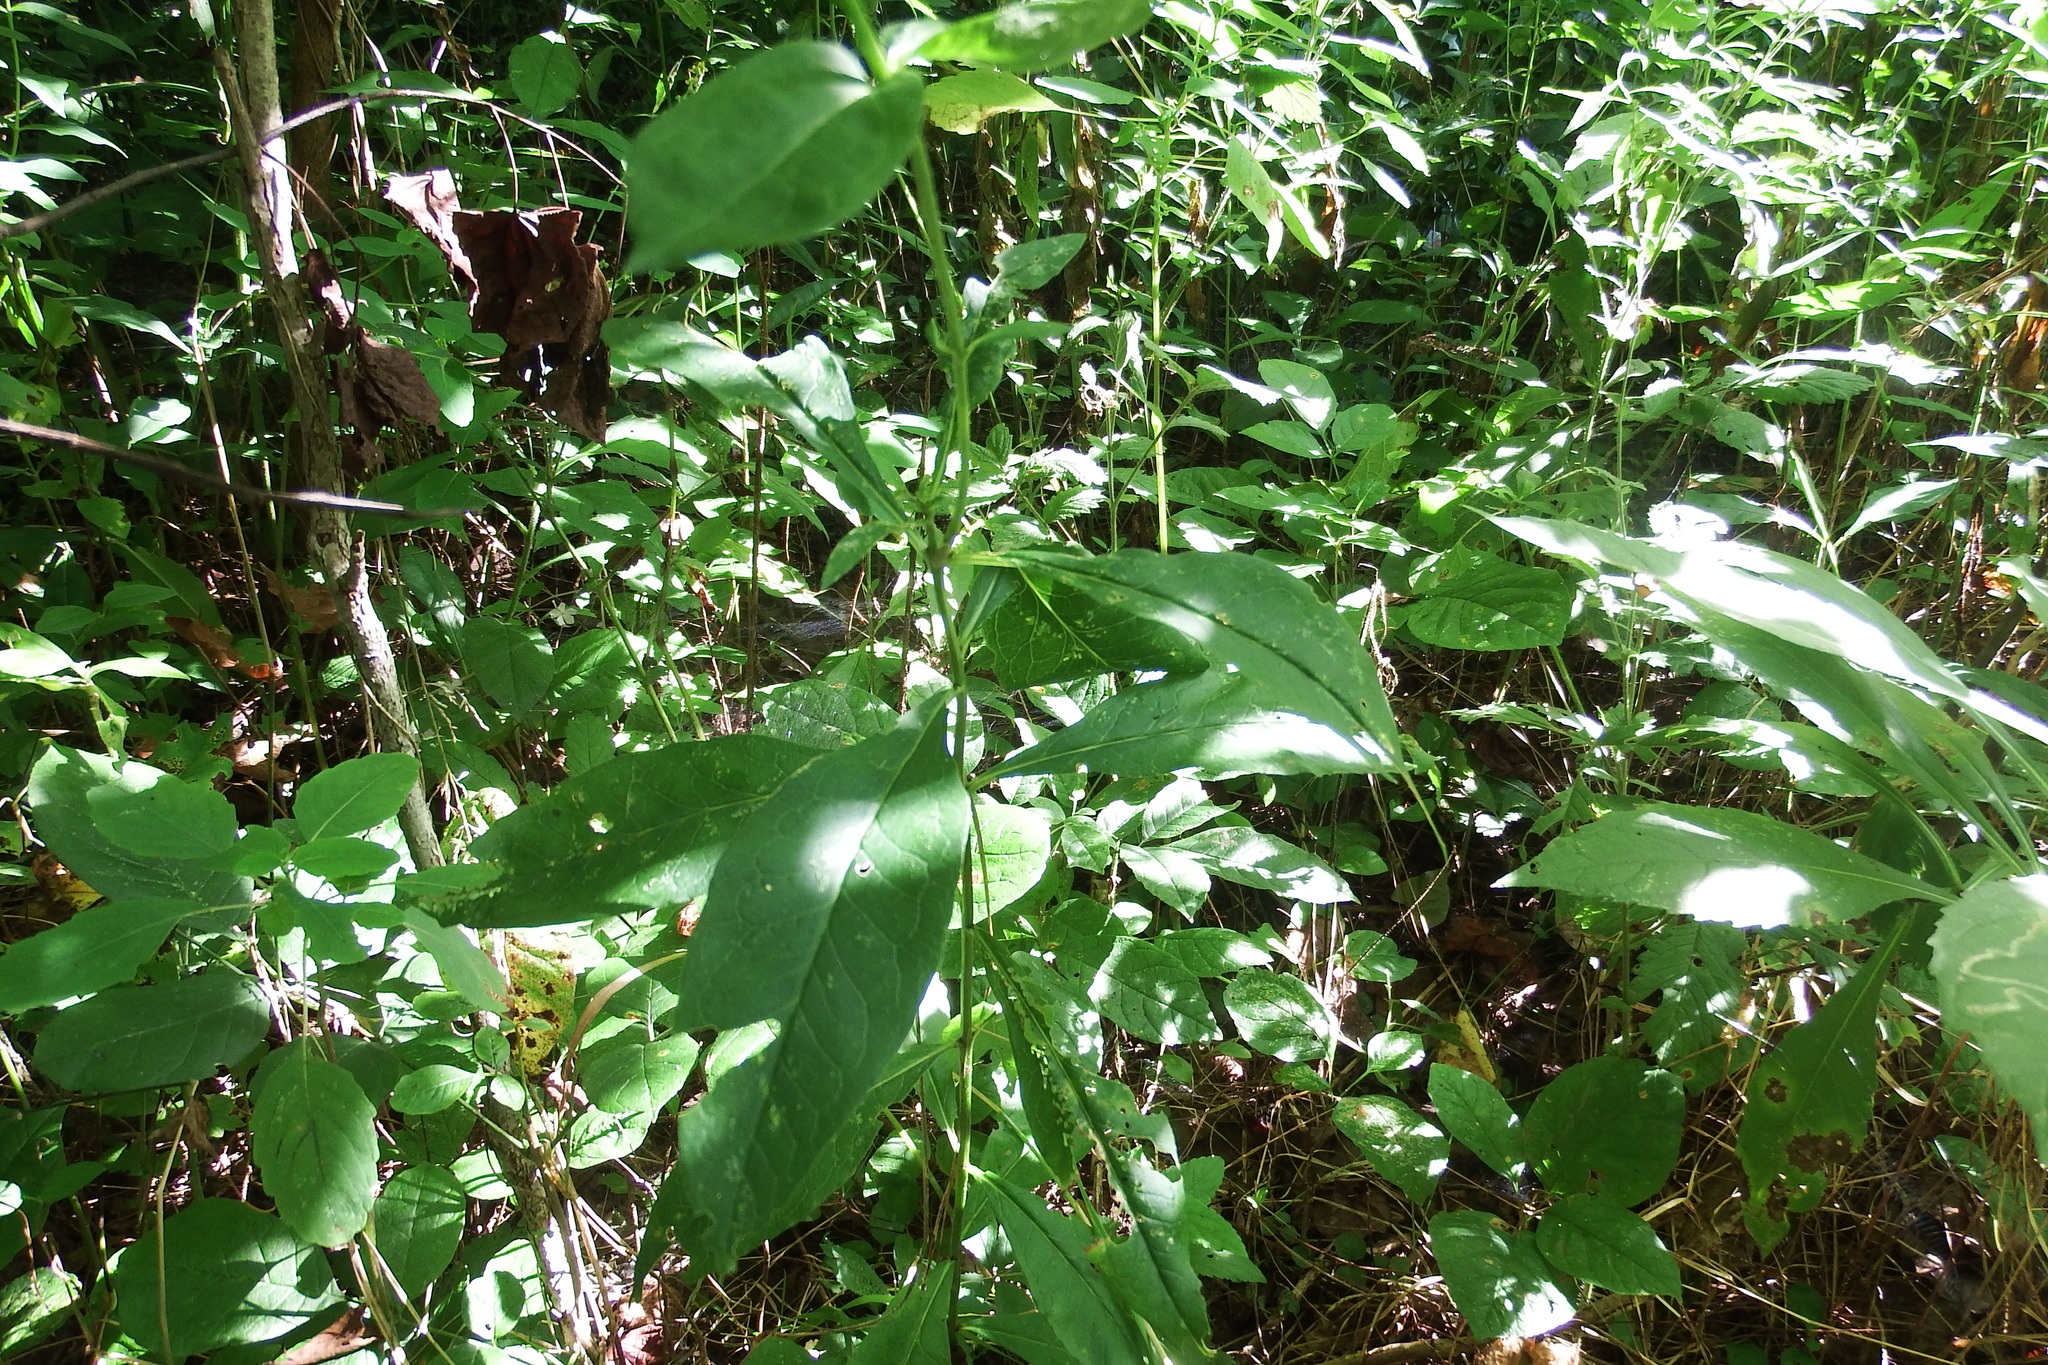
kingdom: Plantae
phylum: Tracheophyta
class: Magnoliopsida
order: Ericales
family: Polemoniaceae
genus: Phlox
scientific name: Phlox paniculata
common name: Fall phlox
